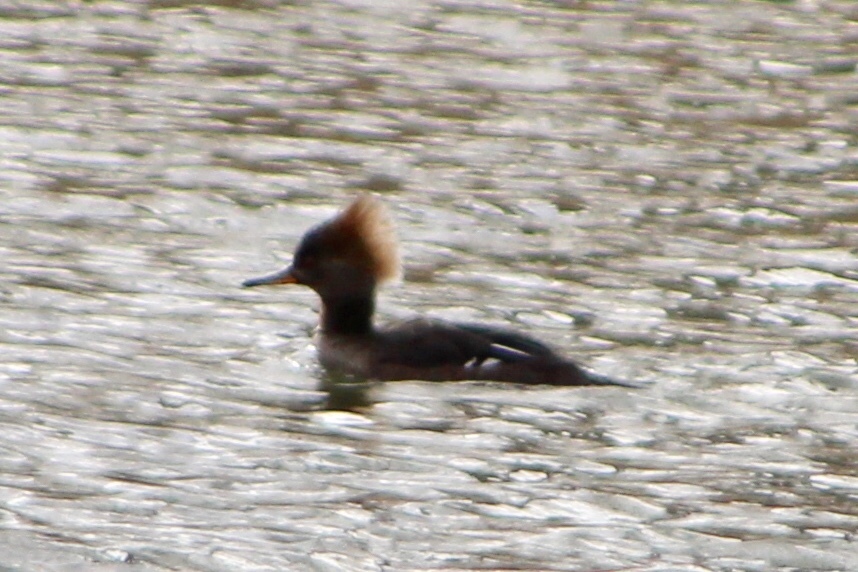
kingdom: Animalia
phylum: Chordata
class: Aves
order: Anseriformes
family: Anatidae
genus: Lophodytes
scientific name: Lophodytes cucullatus
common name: Hooded merganser
